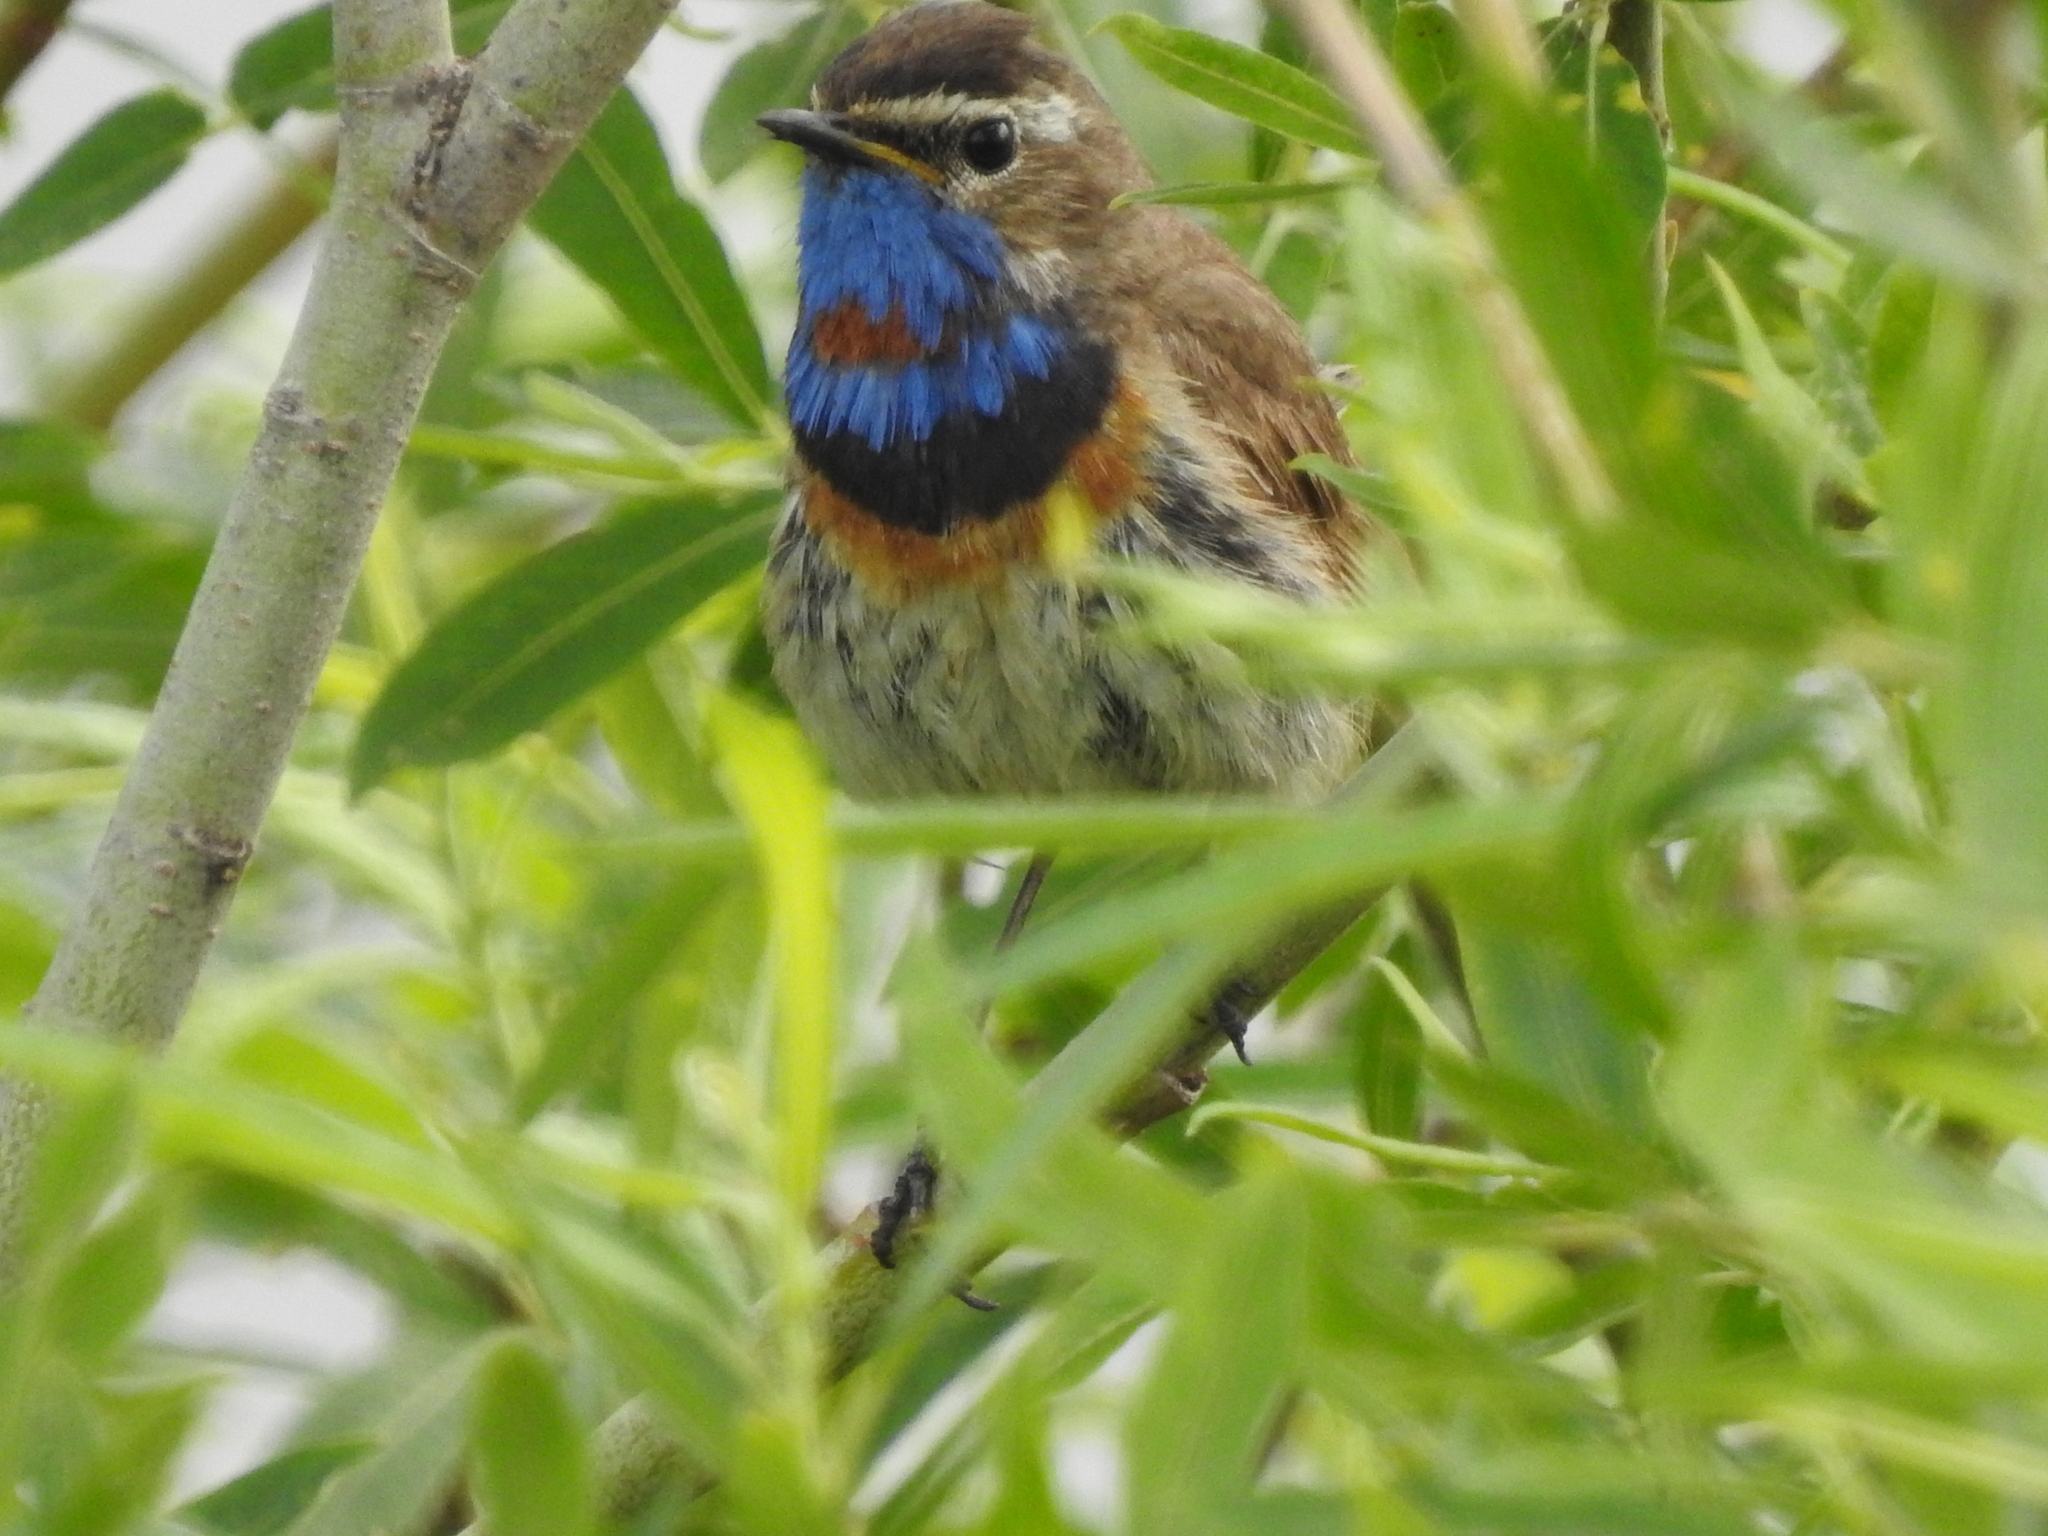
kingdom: Animalia
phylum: Chordata
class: Aves
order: Passeriformes
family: Muscicapidae
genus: Luscinia
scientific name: Luscinia svecica
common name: Bluethroat
